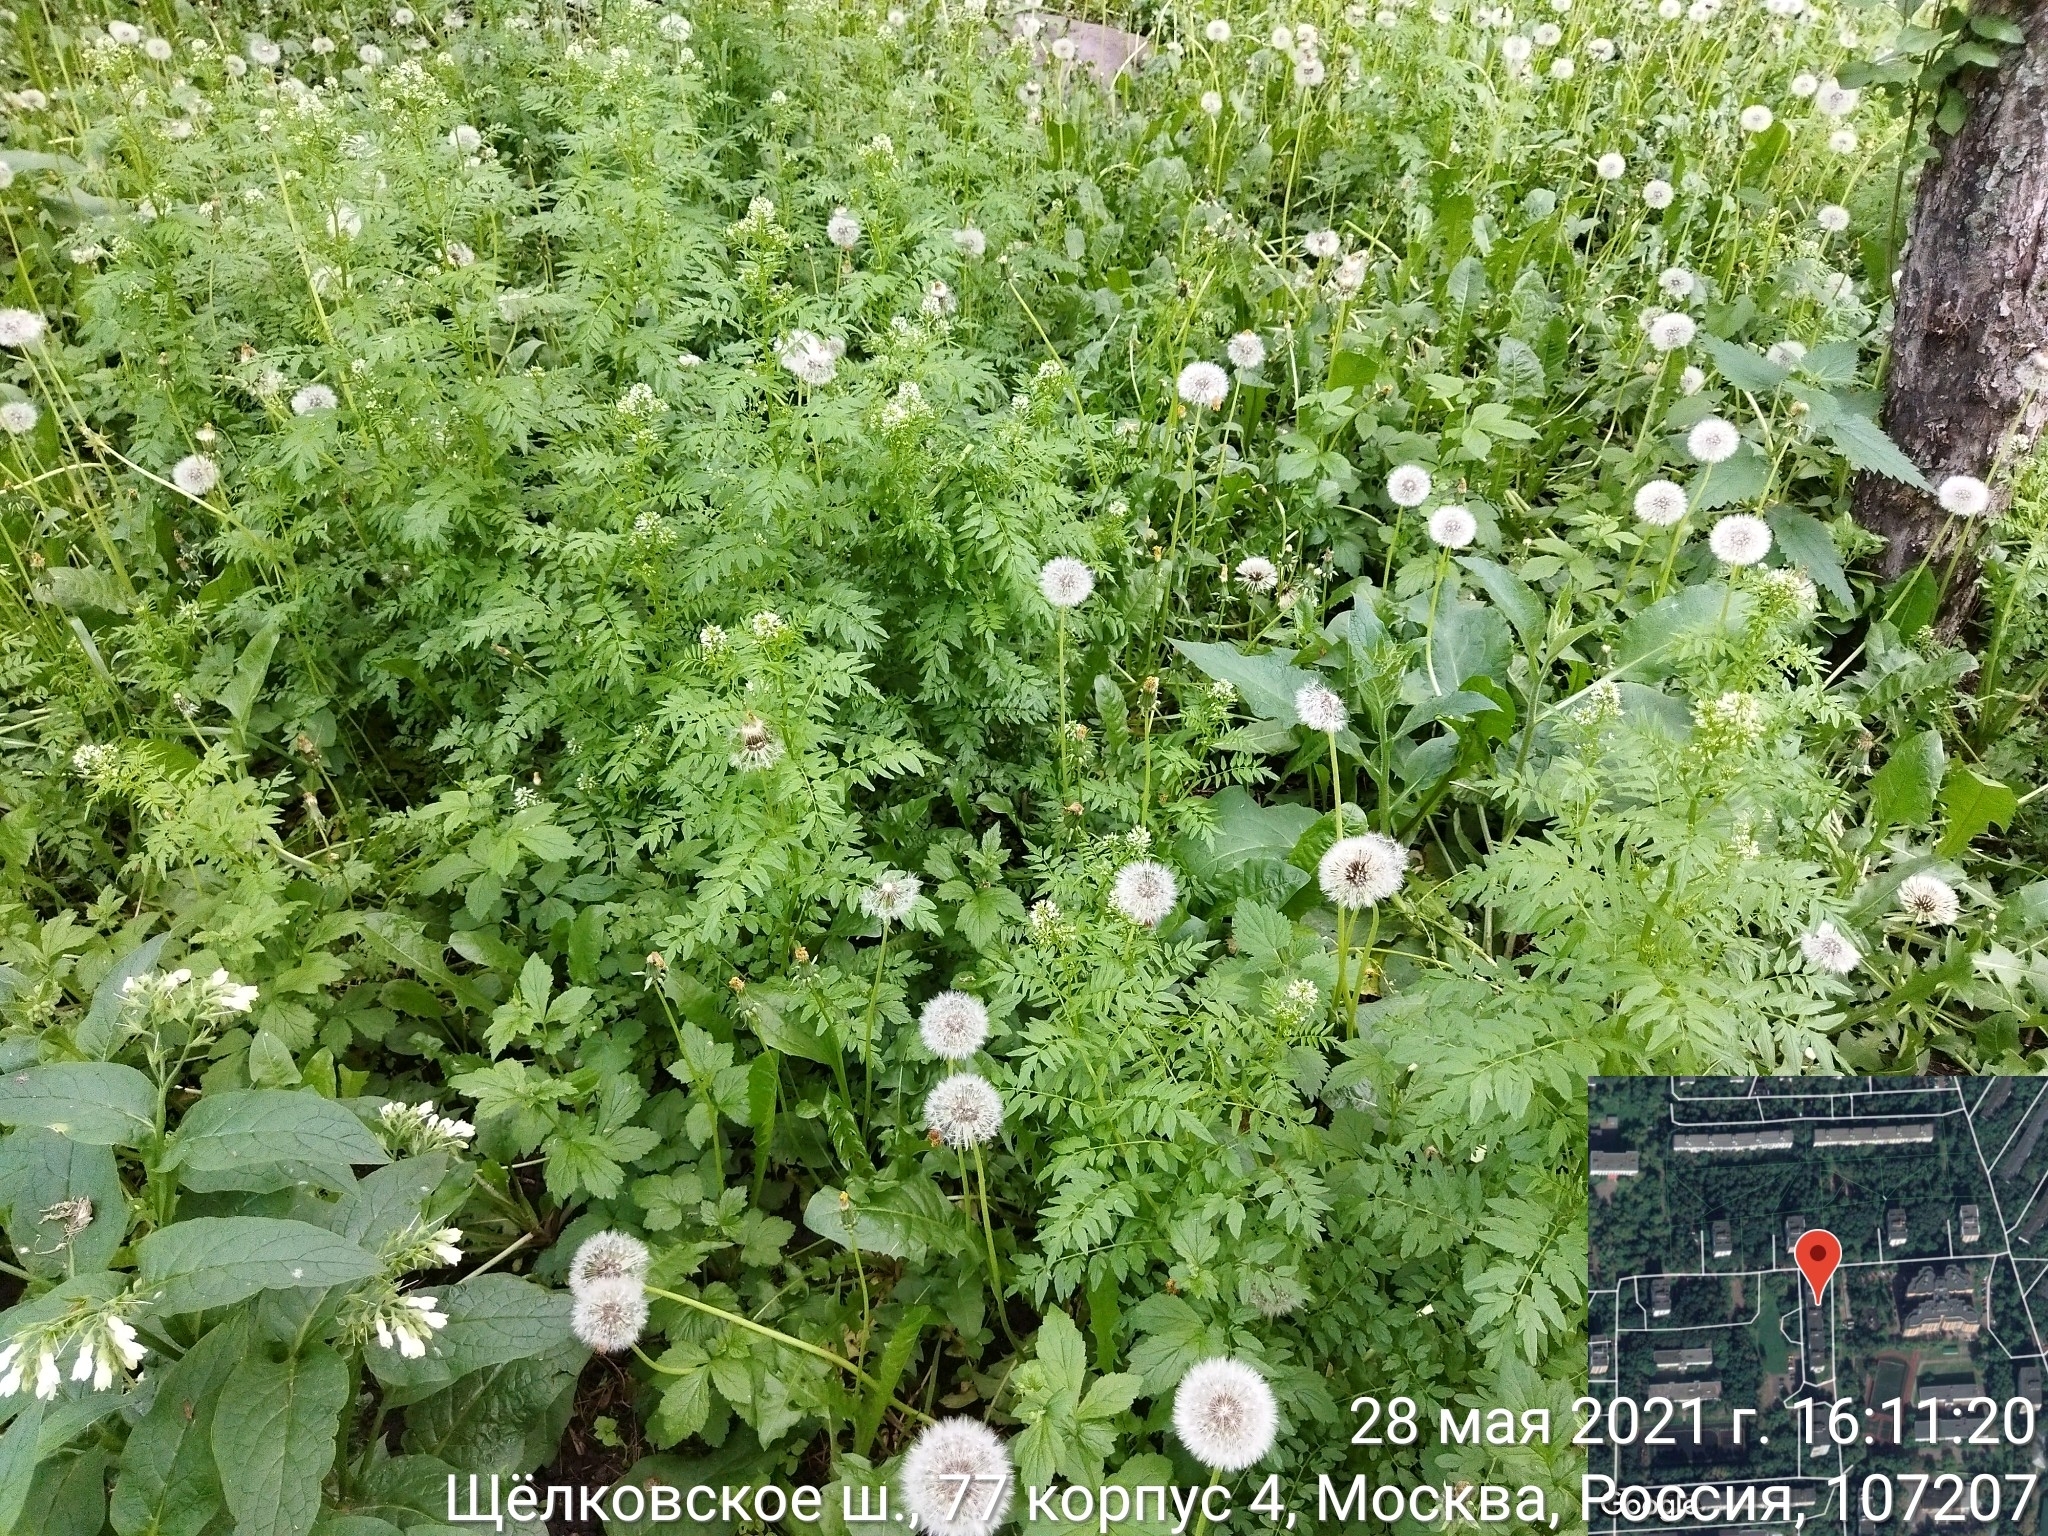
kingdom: Plantae
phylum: Tracheophyta
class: Magnoliopsida
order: Brassicales
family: Brassicaceae
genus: Cardamine
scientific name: Cardamine impatiens
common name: Narrow-leaved bitter-cress
